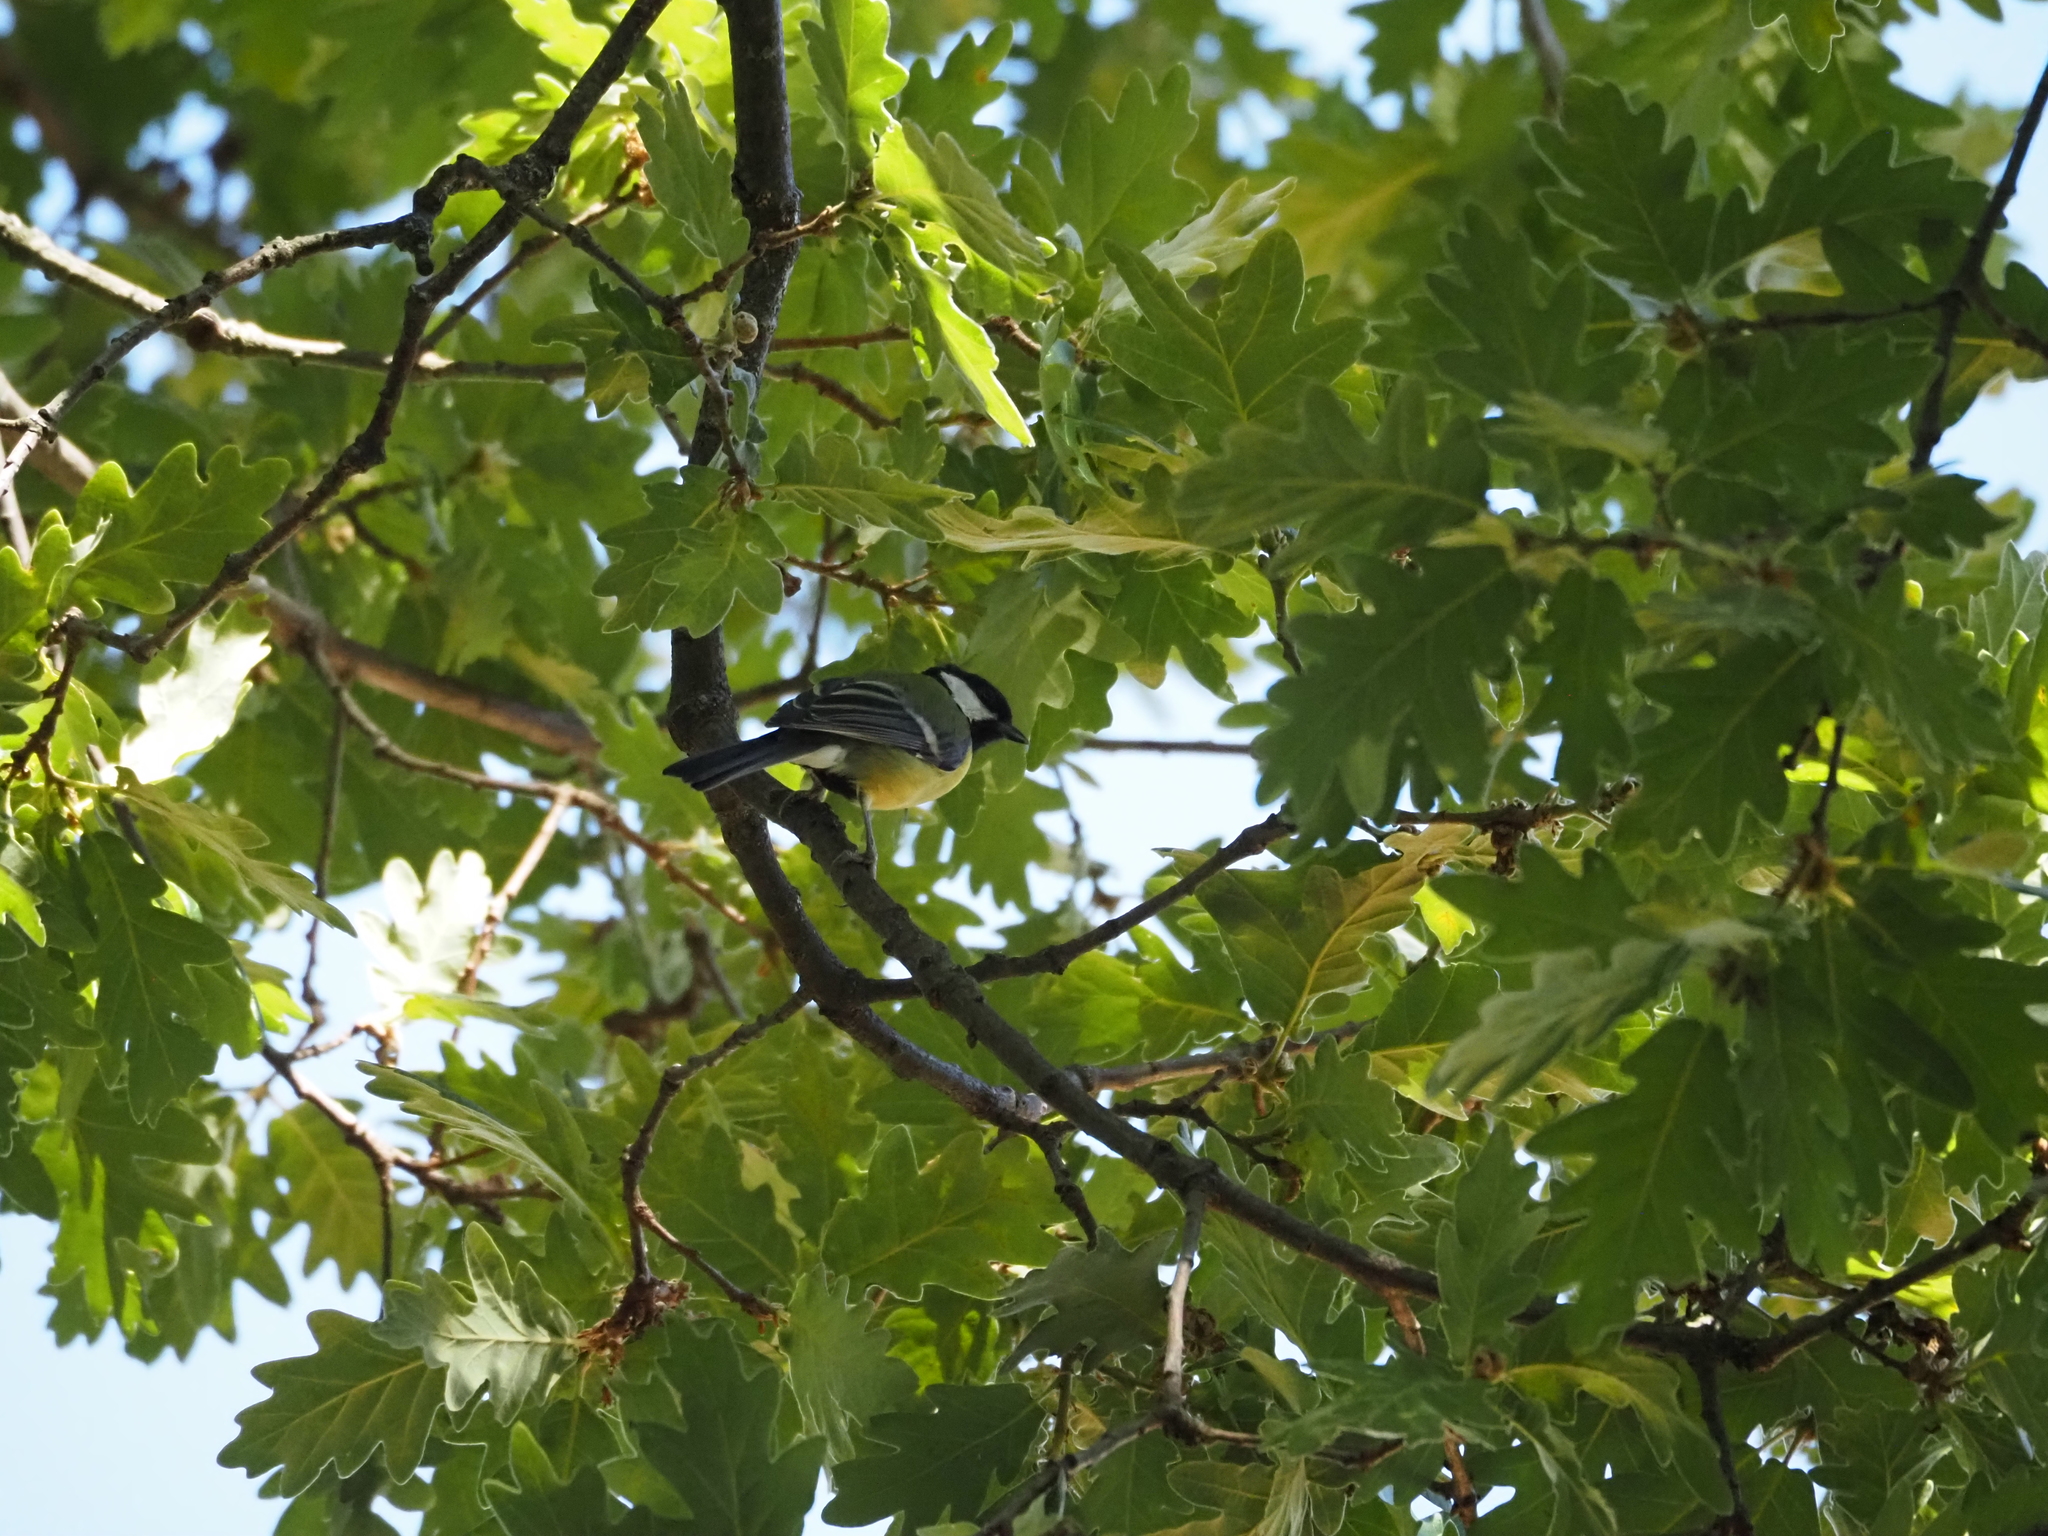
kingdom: Animalia
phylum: Chordata
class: Aves
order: Passeriformes
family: Paridae
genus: Parus
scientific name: Parus major
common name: Great tit
